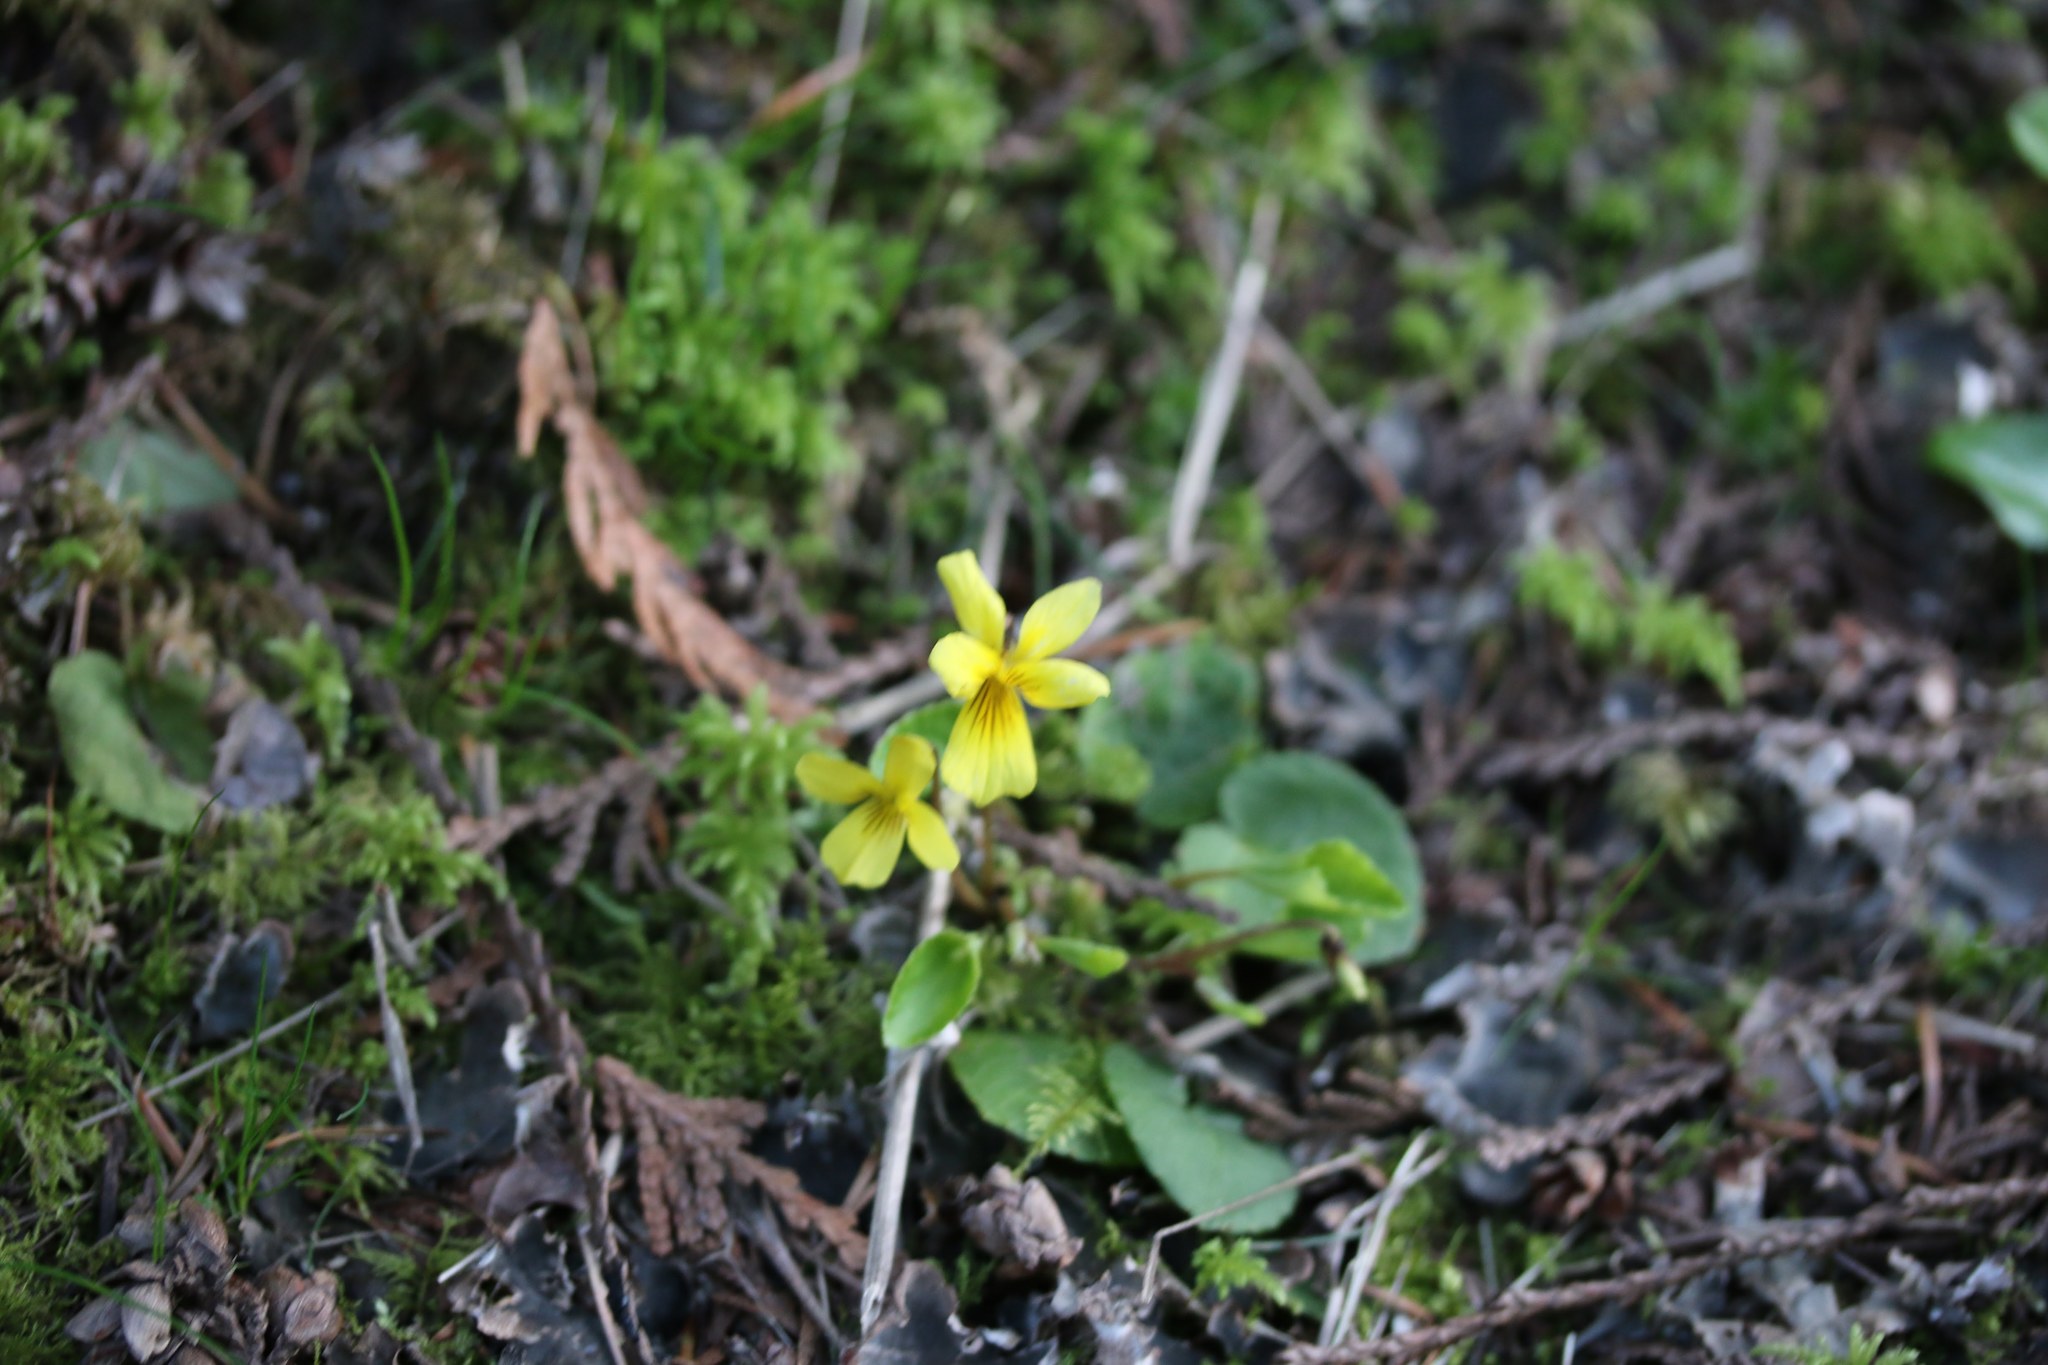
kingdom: Plantae
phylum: Tracheophyta
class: Magnoliopsida
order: Malpighiales
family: Violaceae
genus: Viola
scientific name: Viola sempervirens
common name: Evergreen violet
